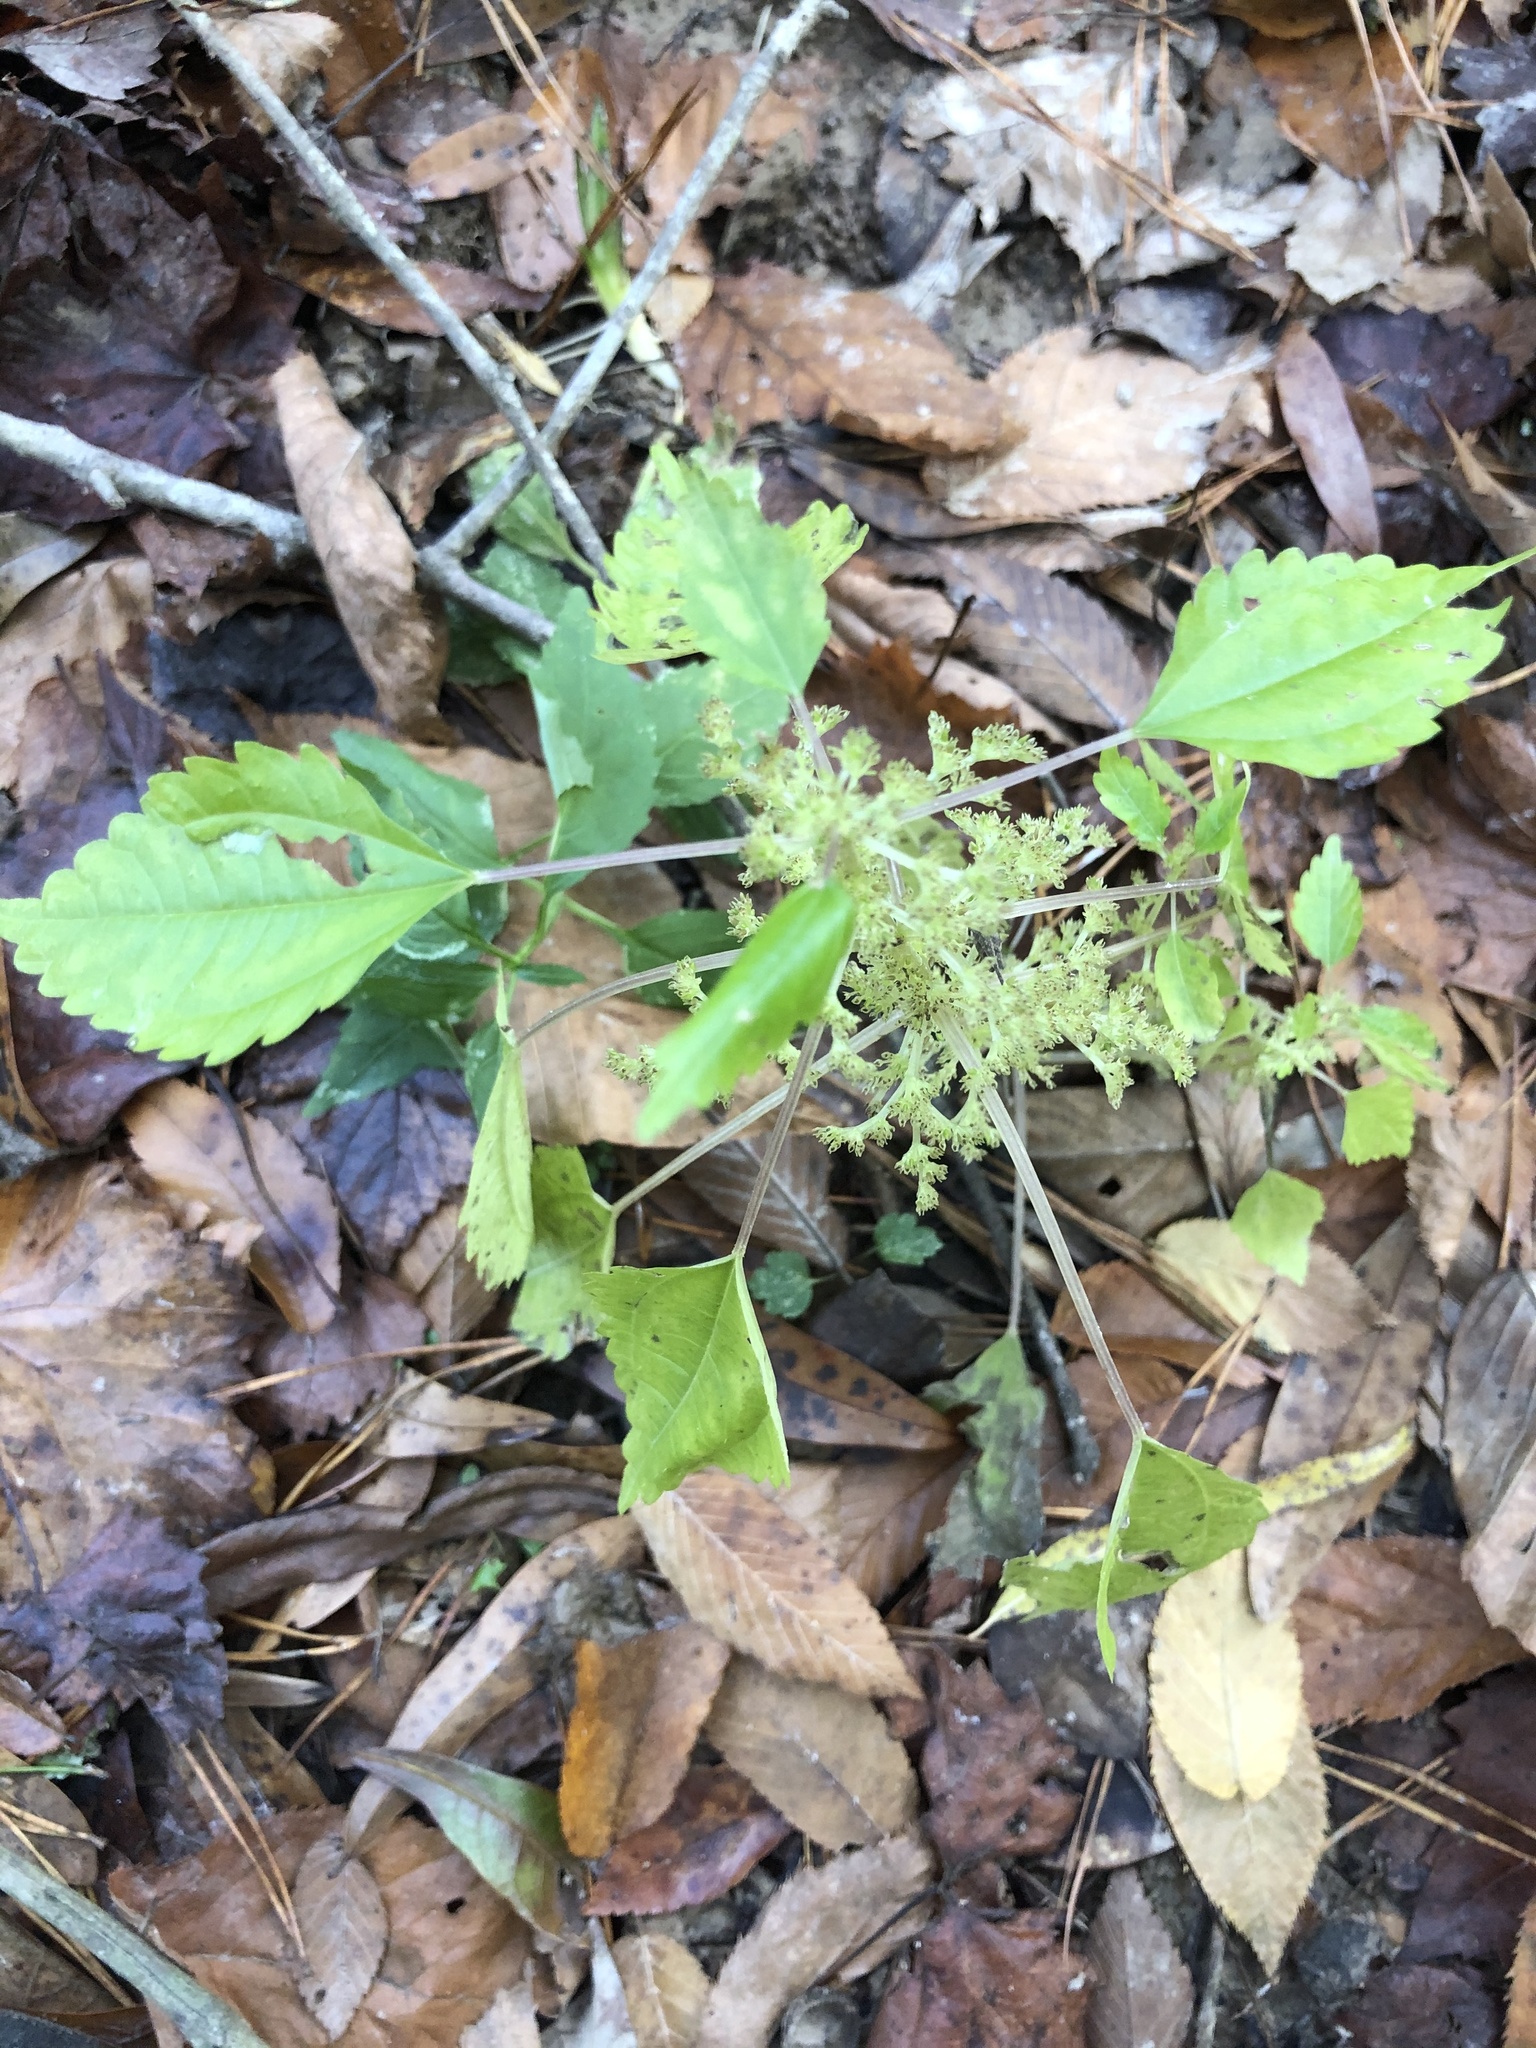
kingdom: Plantae
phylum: Tracheophyta
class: Magnoliopsida
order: Rosales
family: Urticaceae
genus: Pilea
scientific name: Pilea pumila
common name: Clearweed
